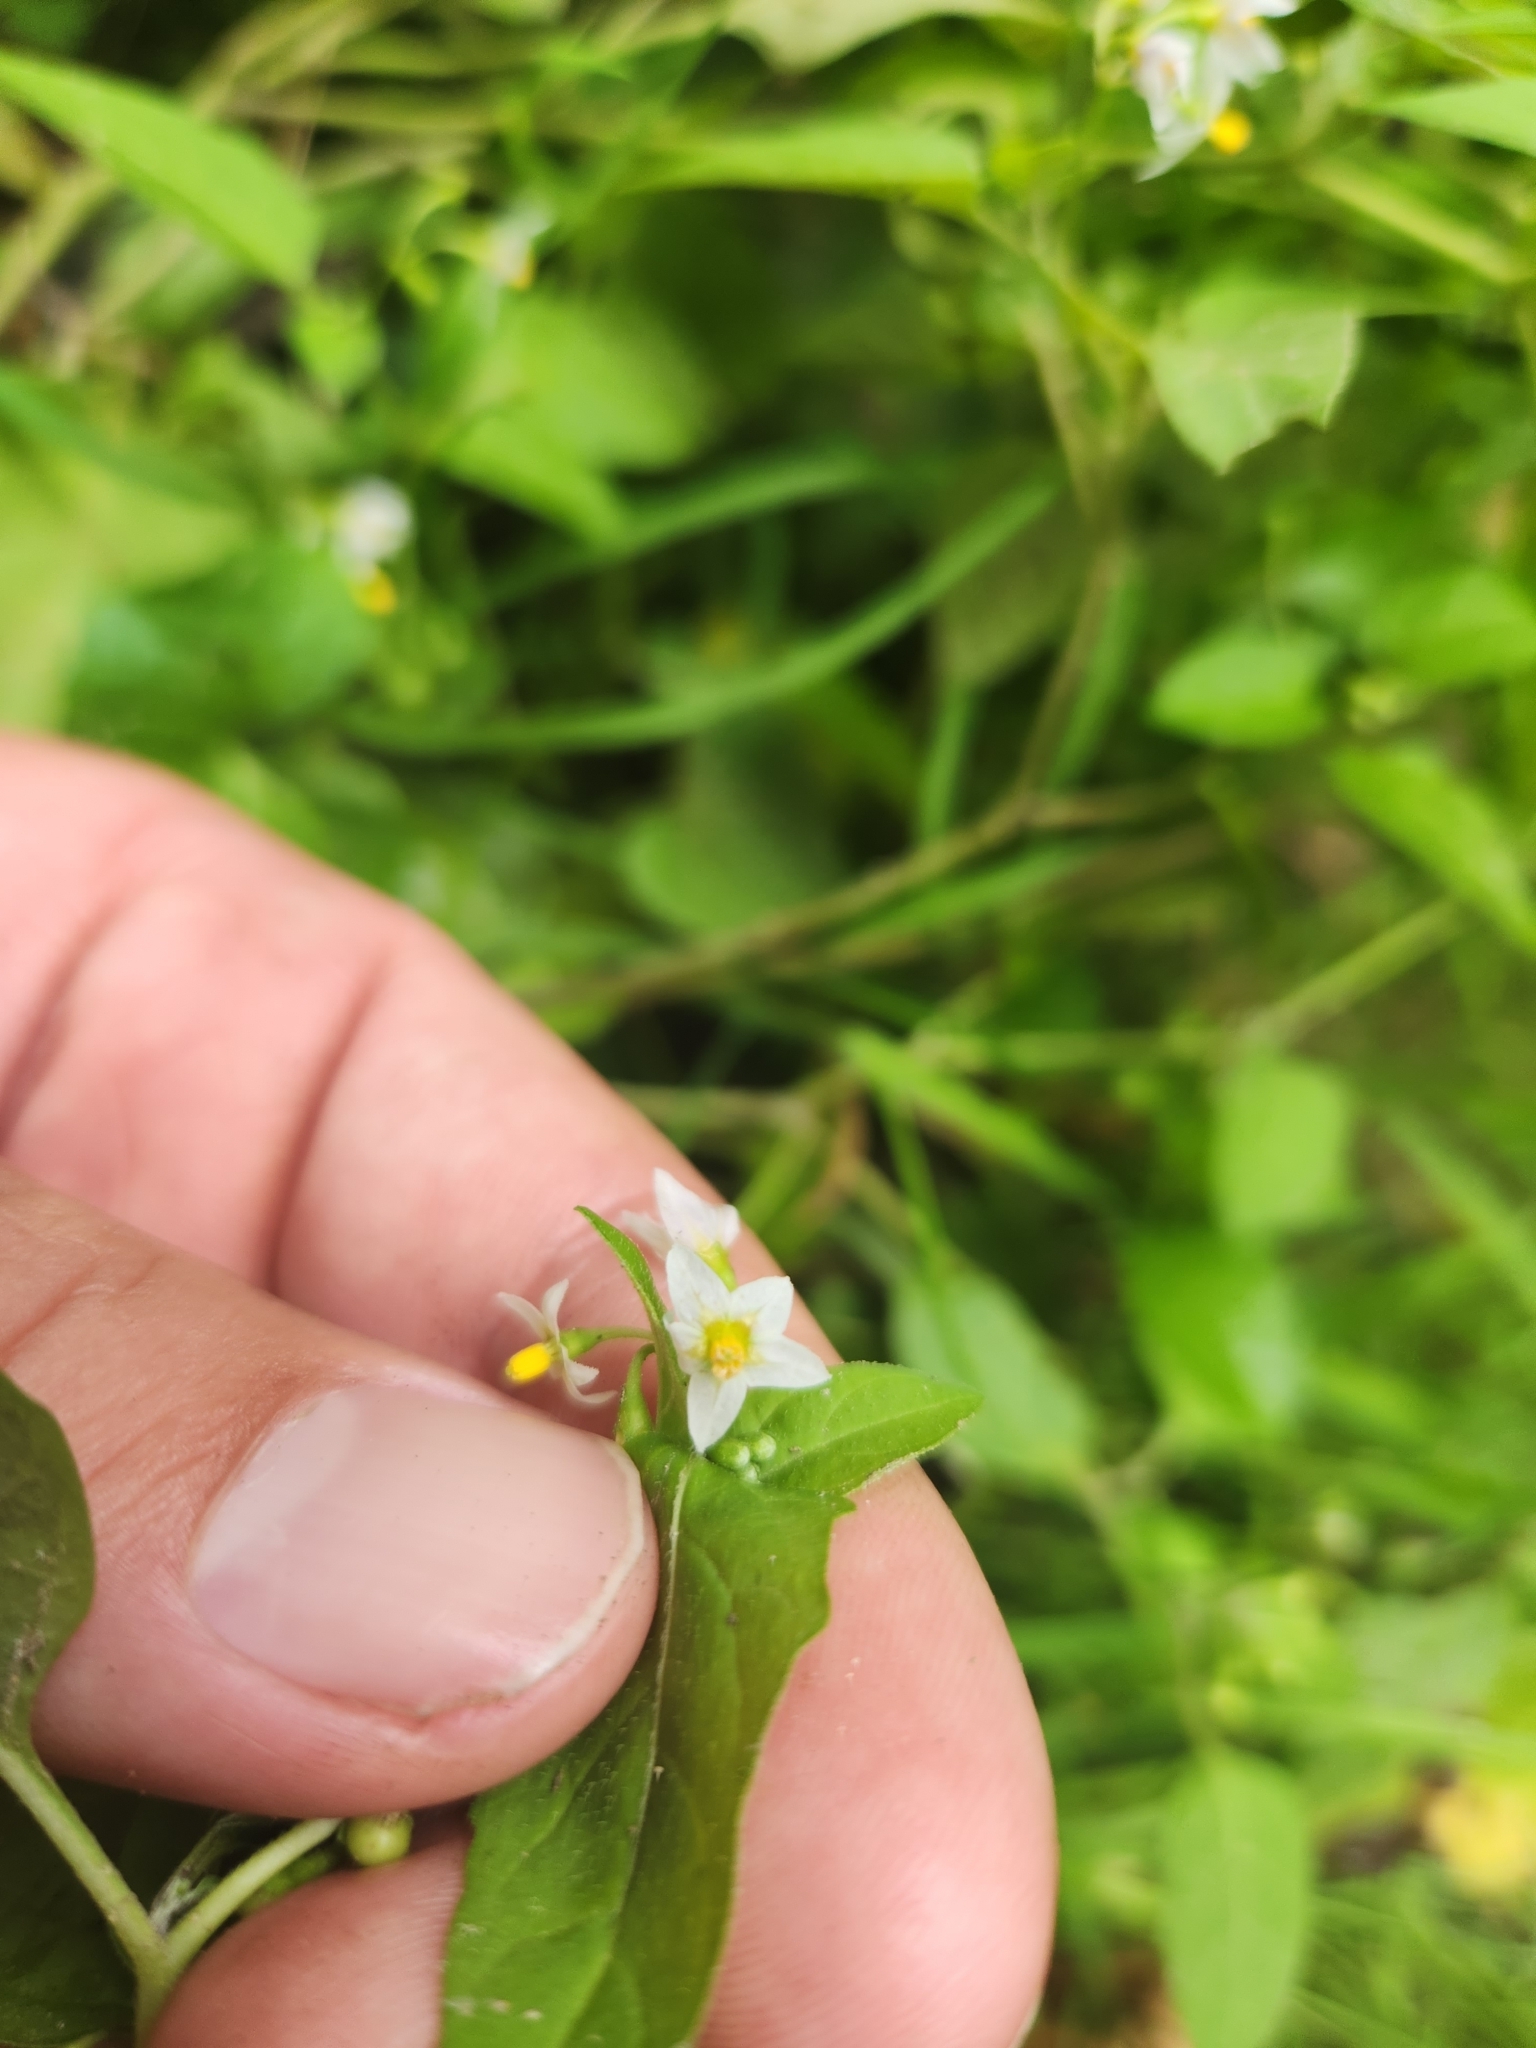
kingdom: Plantae
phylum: Tracheophyta
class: Magnoliopsida
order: Solanales
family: Solanaceae
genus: Solanum
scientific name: Solanum emulans
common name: Eastern black nightshade
